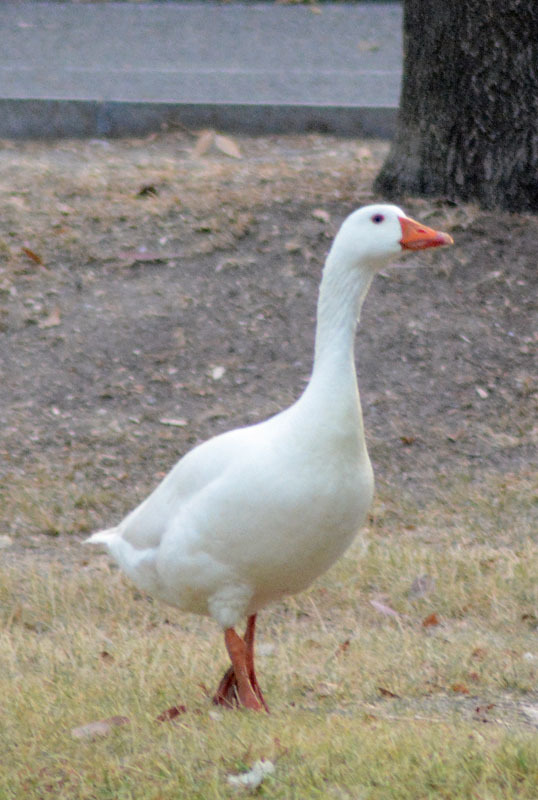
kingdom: Animalia
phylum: Chordata
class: Aves
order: Anseriformes
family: Anatidae
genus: Anser
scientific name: Anser anser
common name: Greylag goose
